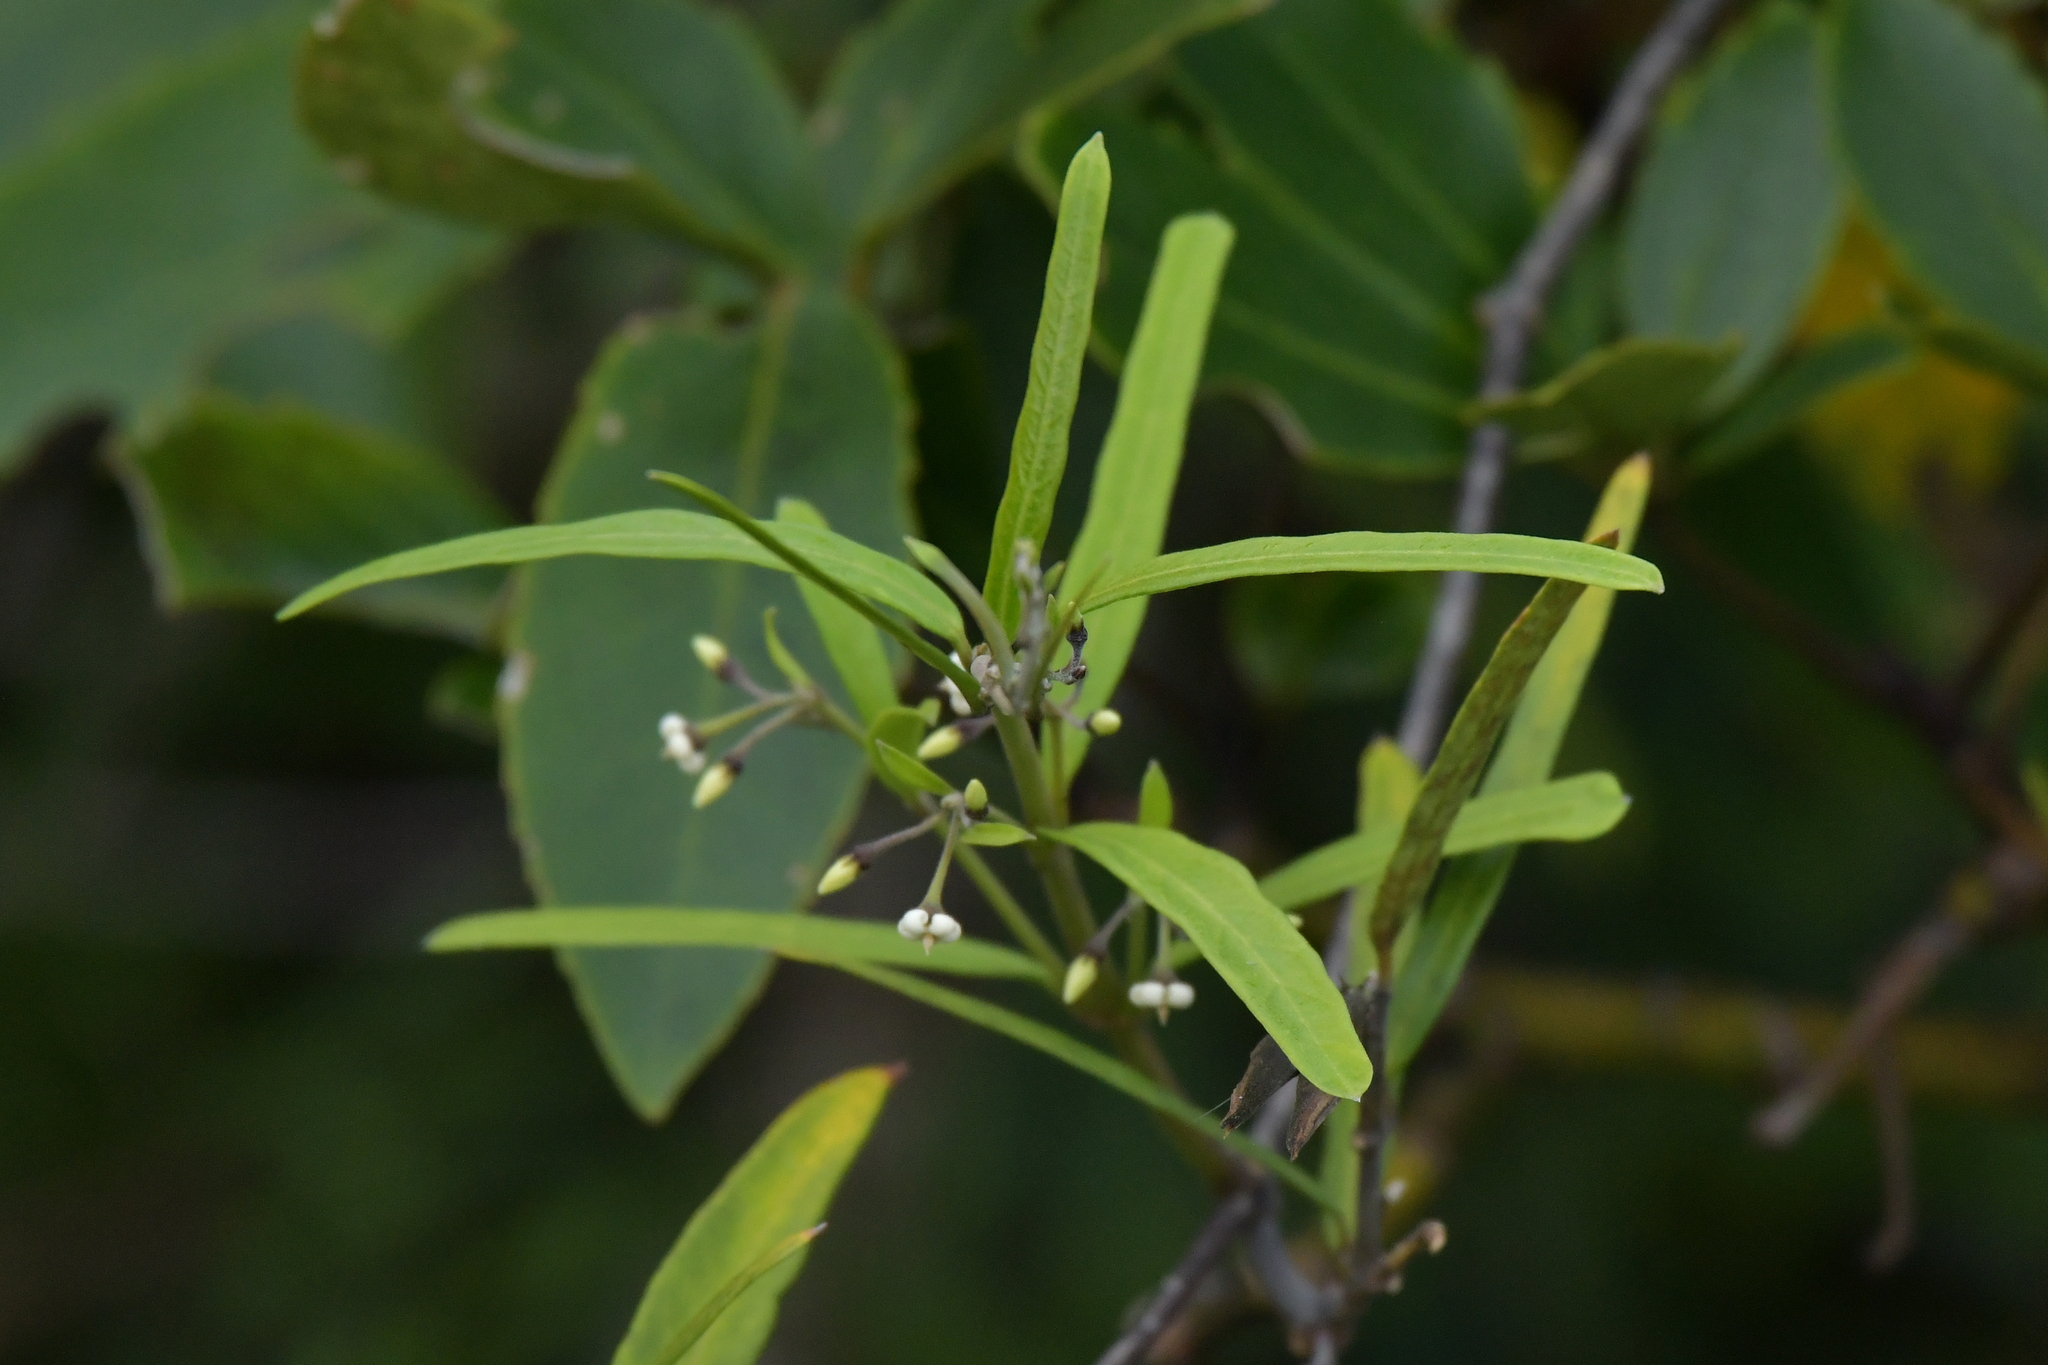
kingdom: Plantae
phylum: Tracheophyta
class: Magnoliopsida
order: Gentianales
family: Apocynaceae
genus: Parsonsia
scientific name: Parsonsia capsularis
